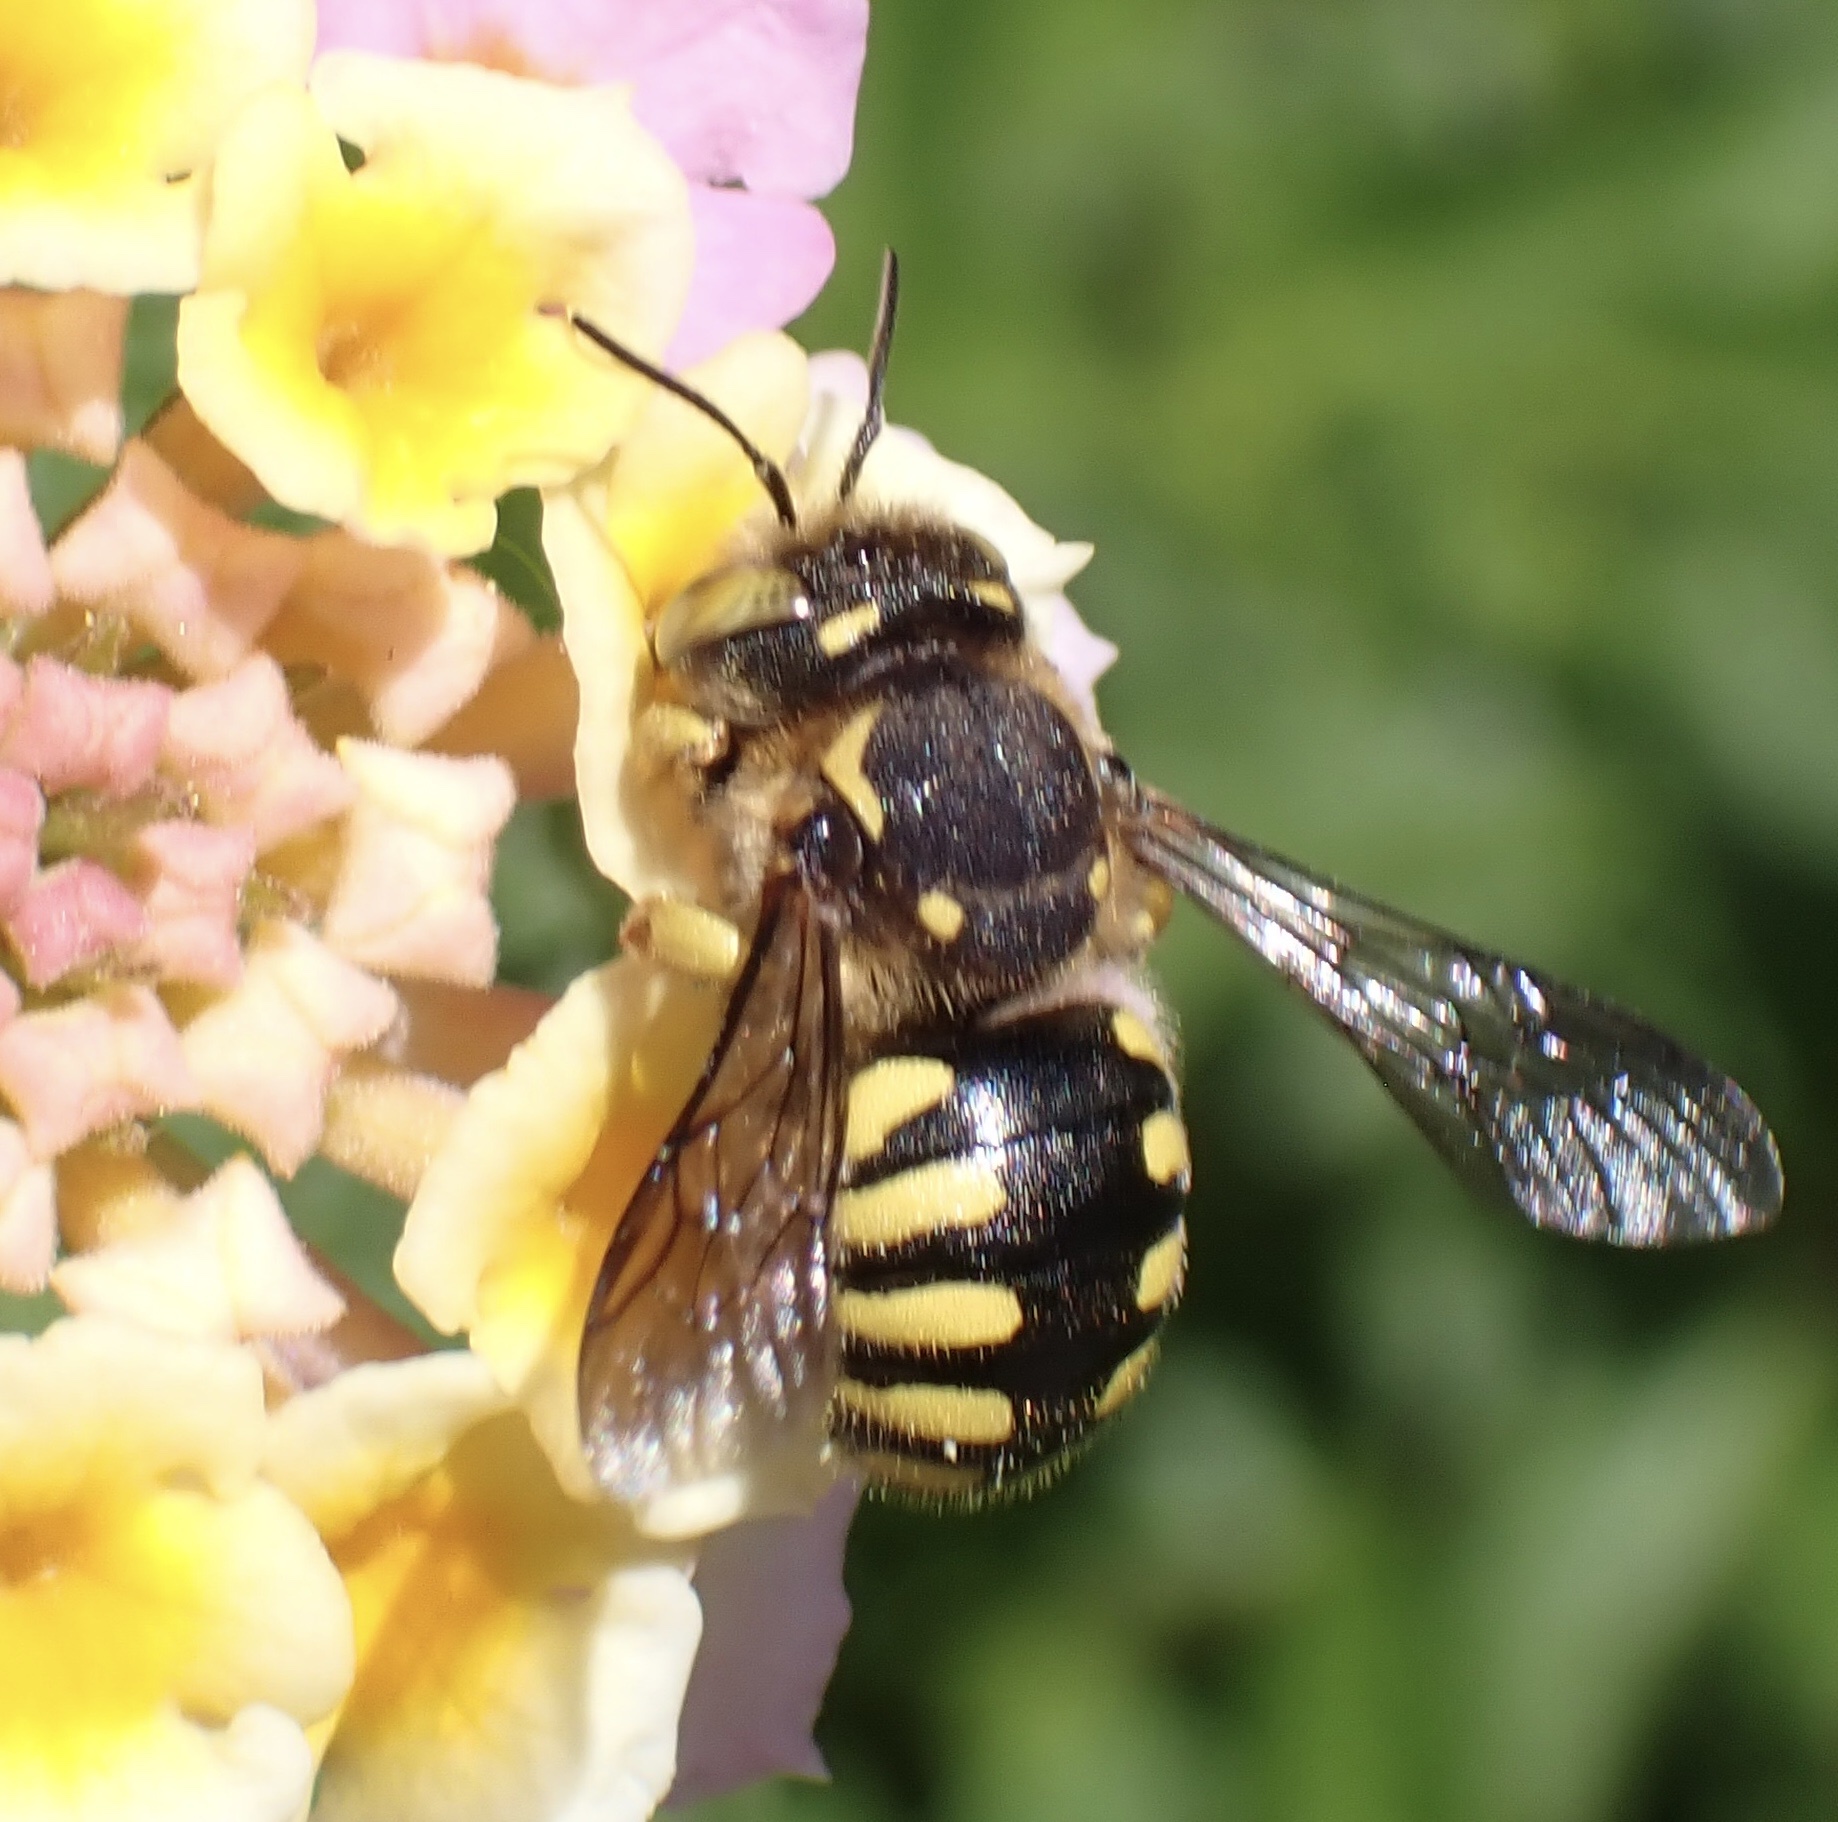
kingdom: Animalia
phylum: Arthropoda
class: Insecta
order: Hymenoptera
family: Megachilidae
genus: Anthidium
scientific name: Anthidium florentinum
